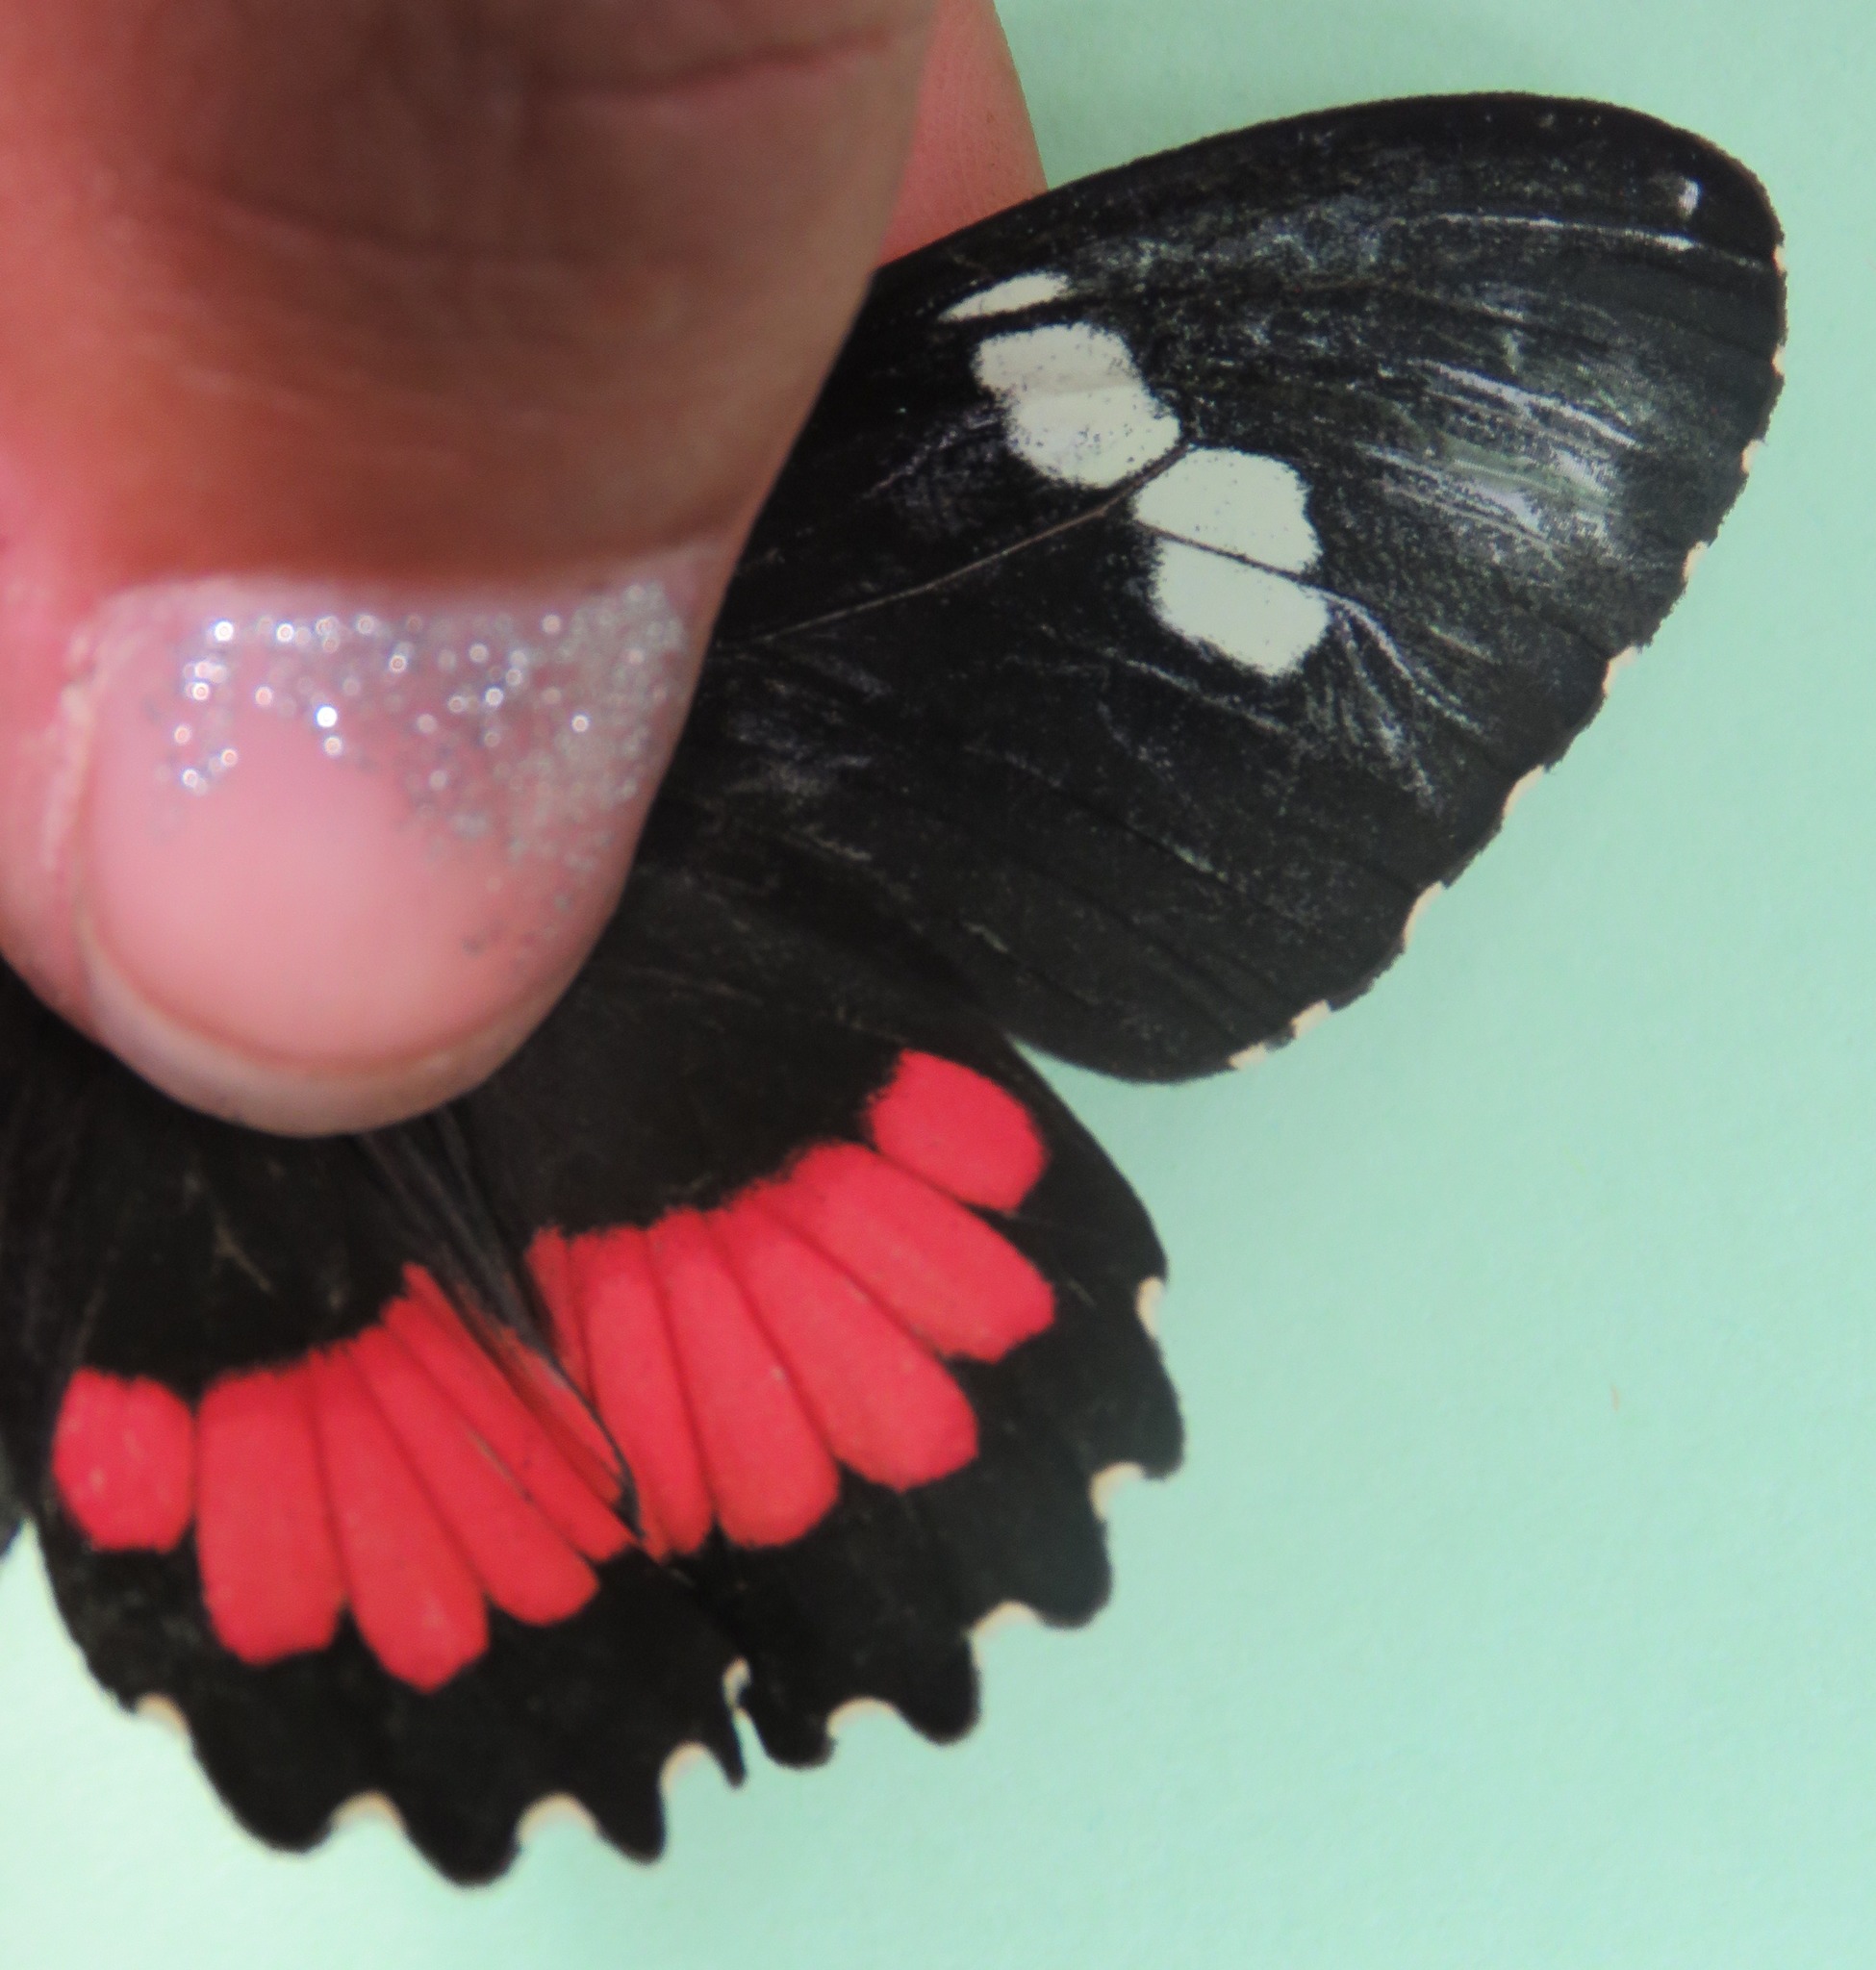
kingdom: Animalia
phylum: Arthropoda
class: Insecta
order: Lepidoptera
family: Papilionidae
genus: Parides
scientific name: Parides iphidamas
